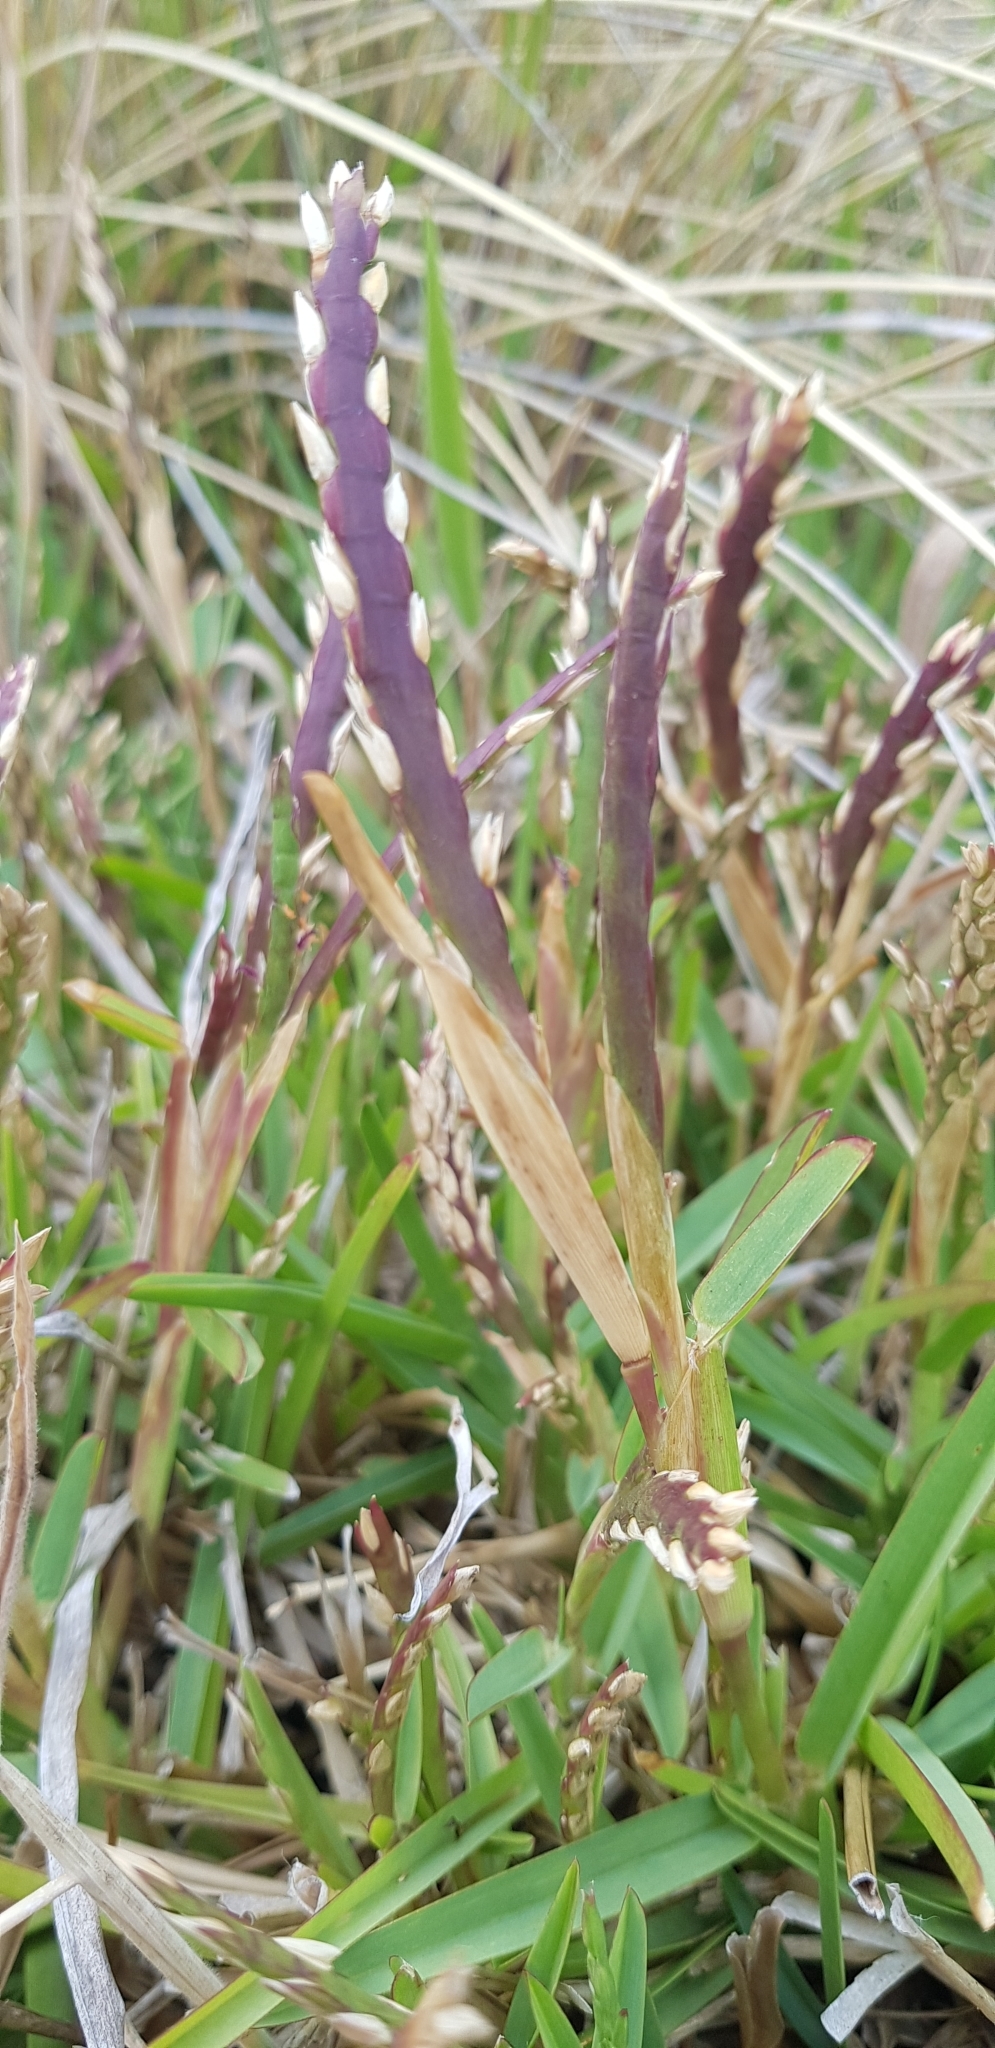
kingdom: Plantae
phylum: Tracheophyta
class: Liliopsida
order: Poales
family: Poaceae
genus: Stenotaphrum
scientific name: Stenotaphrum secundatum
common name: St. augustine grass
